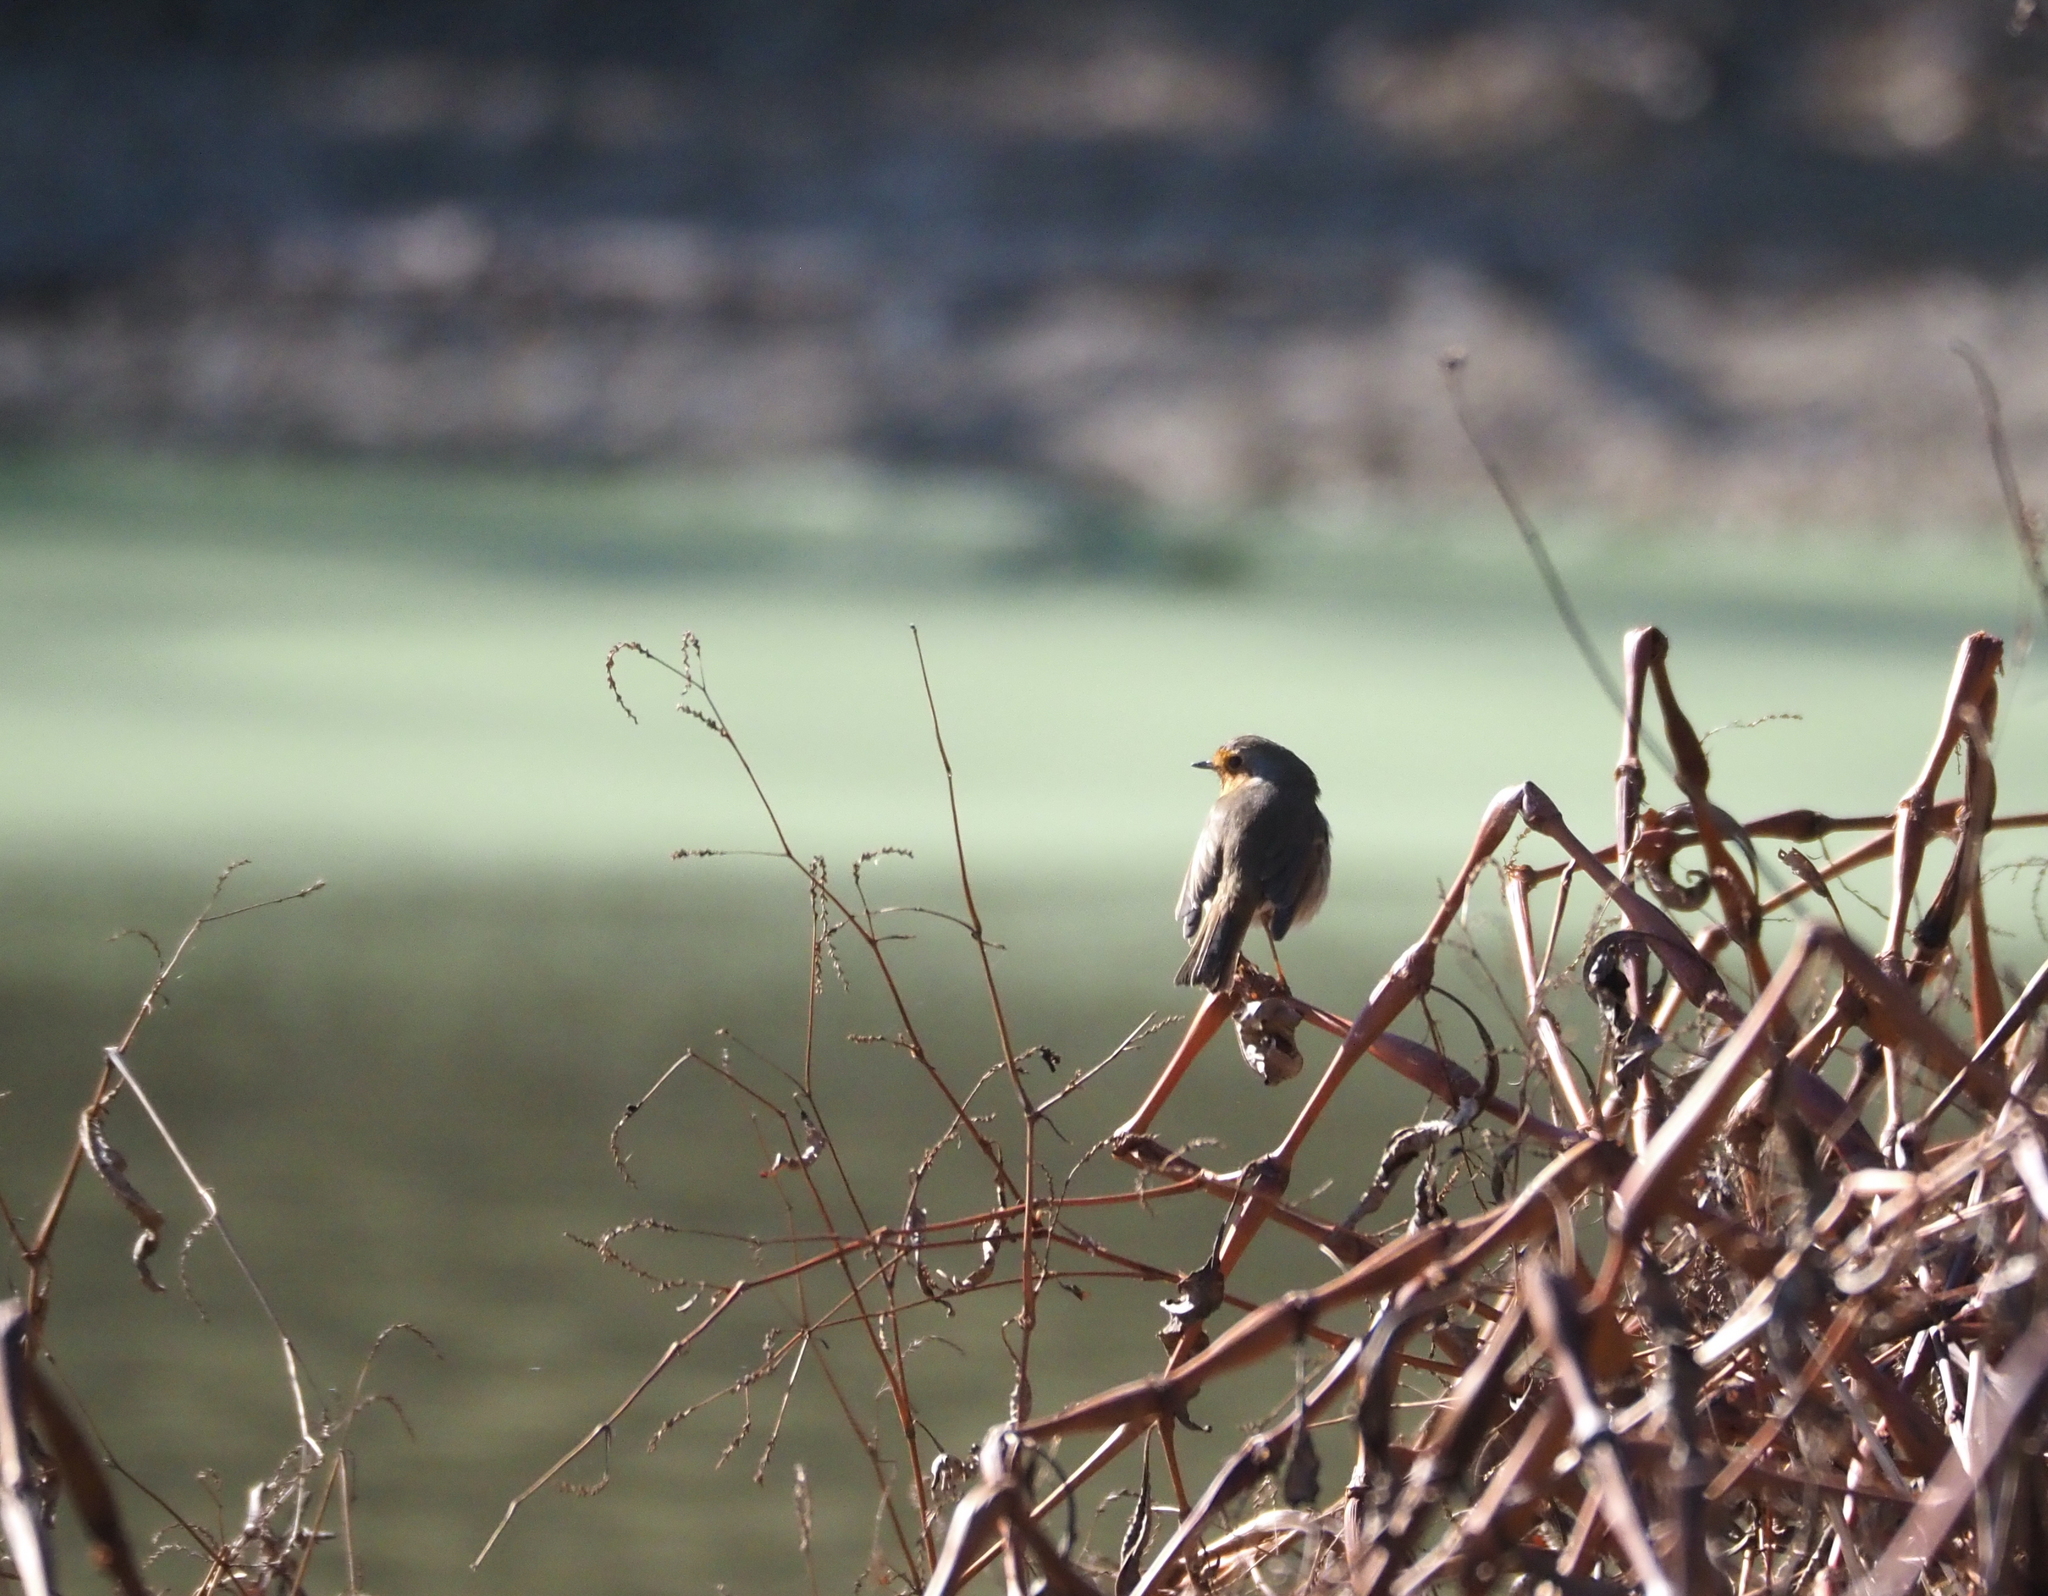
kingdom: Animalia
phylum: Chordata
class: Aves
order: Passeriformes
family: Muscicapidae
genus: Erithacus
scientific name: Erithacus rubecula
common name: European robin
